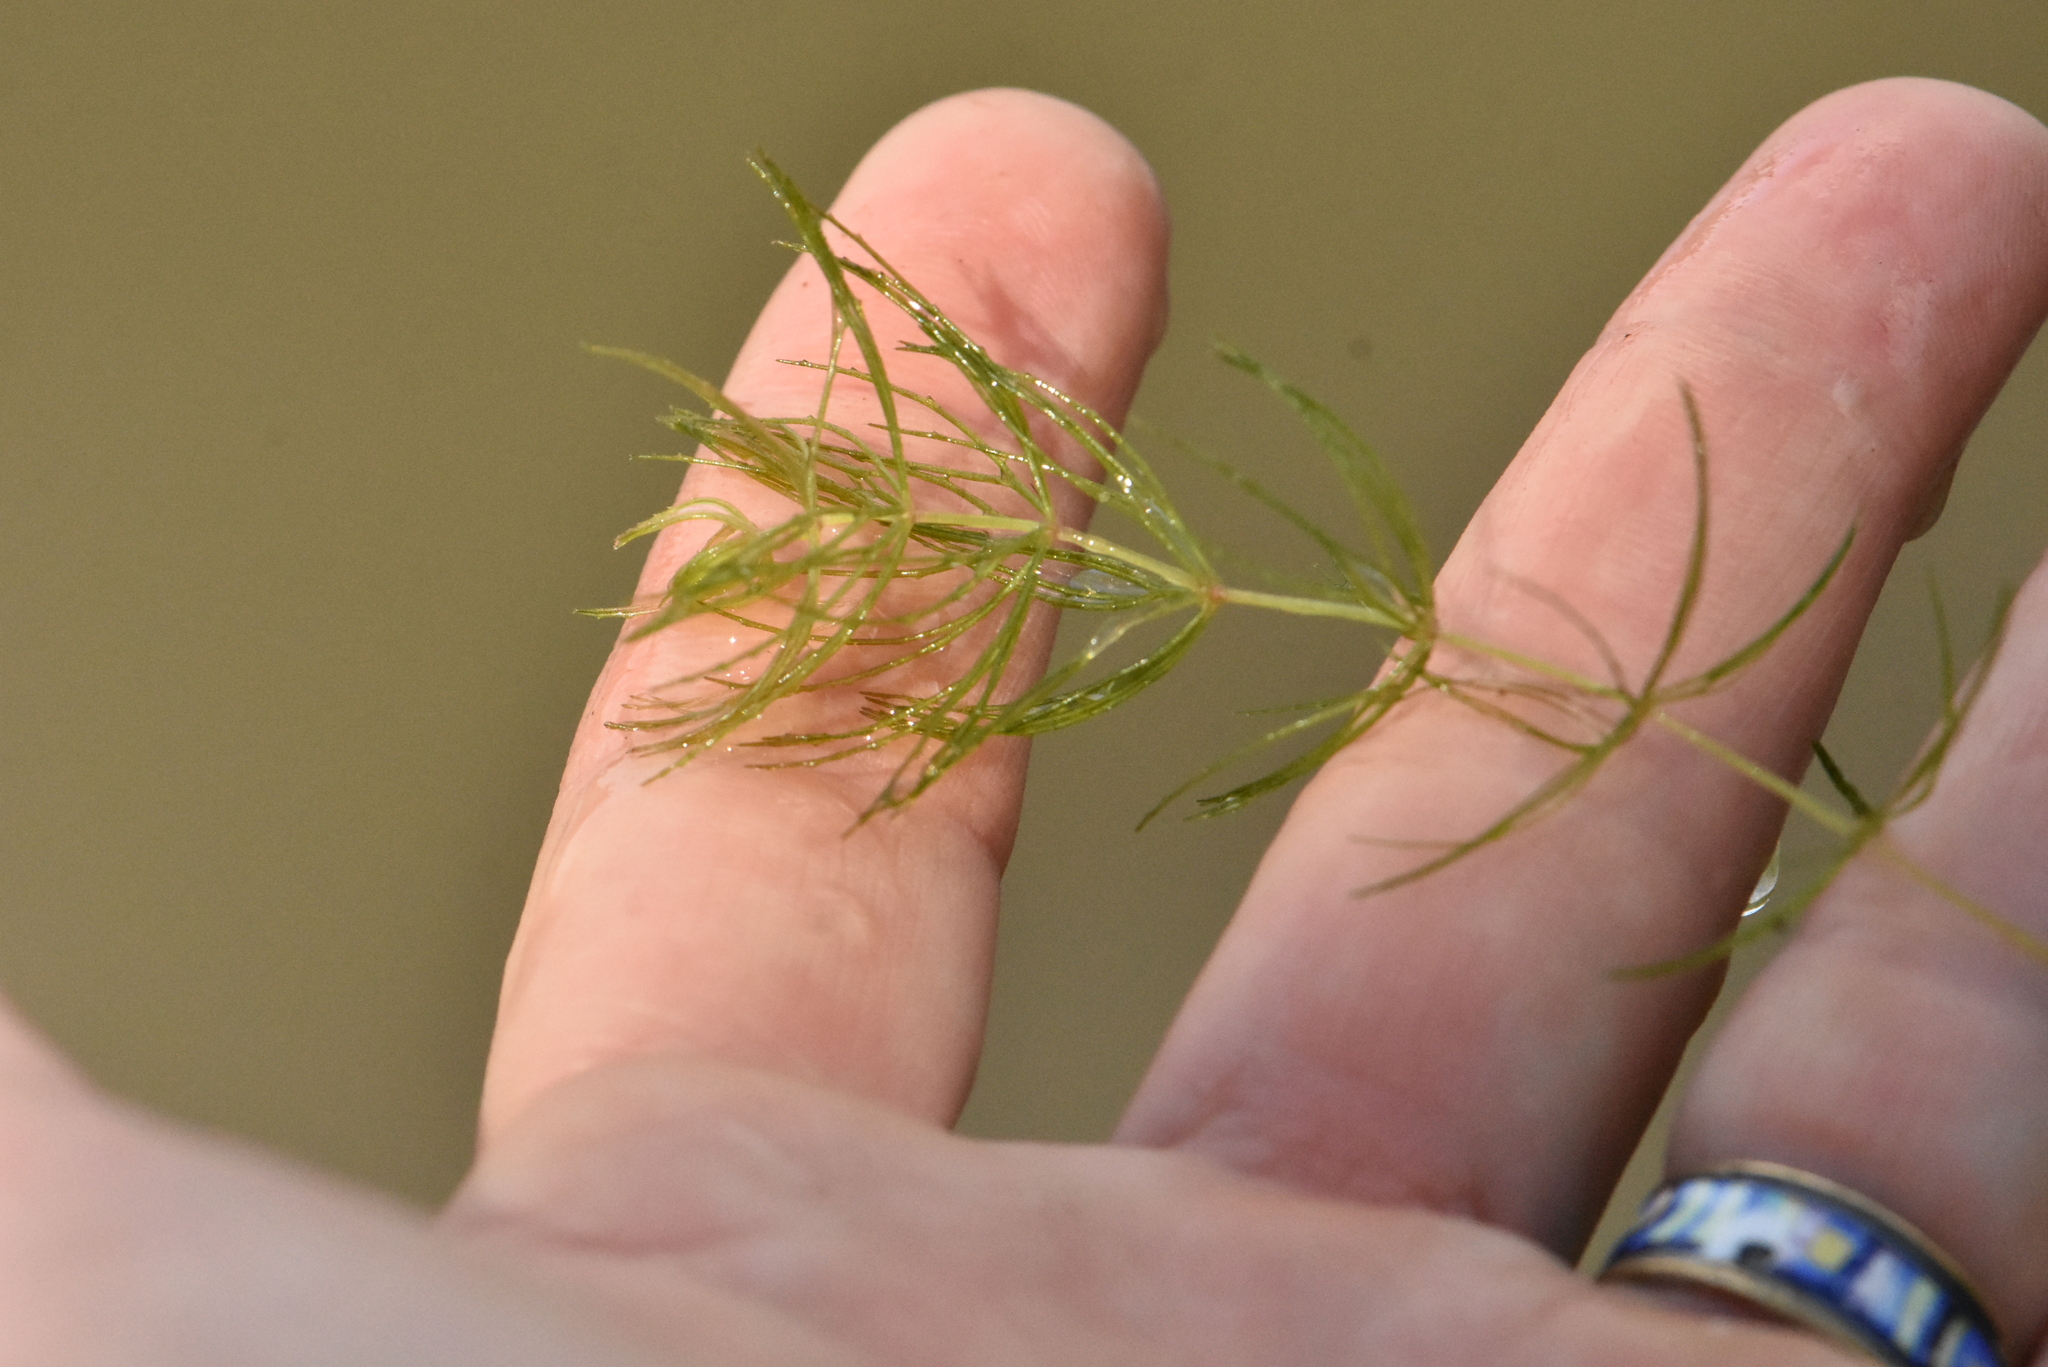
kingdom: Plantae
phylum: Tracheophyta
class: Magnoliopsida
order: Ceratophyllales
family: Ceratophyllaceae
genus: Ceratophyllum
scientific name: Ceratophyllum demersum
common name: Rigid hornwort
